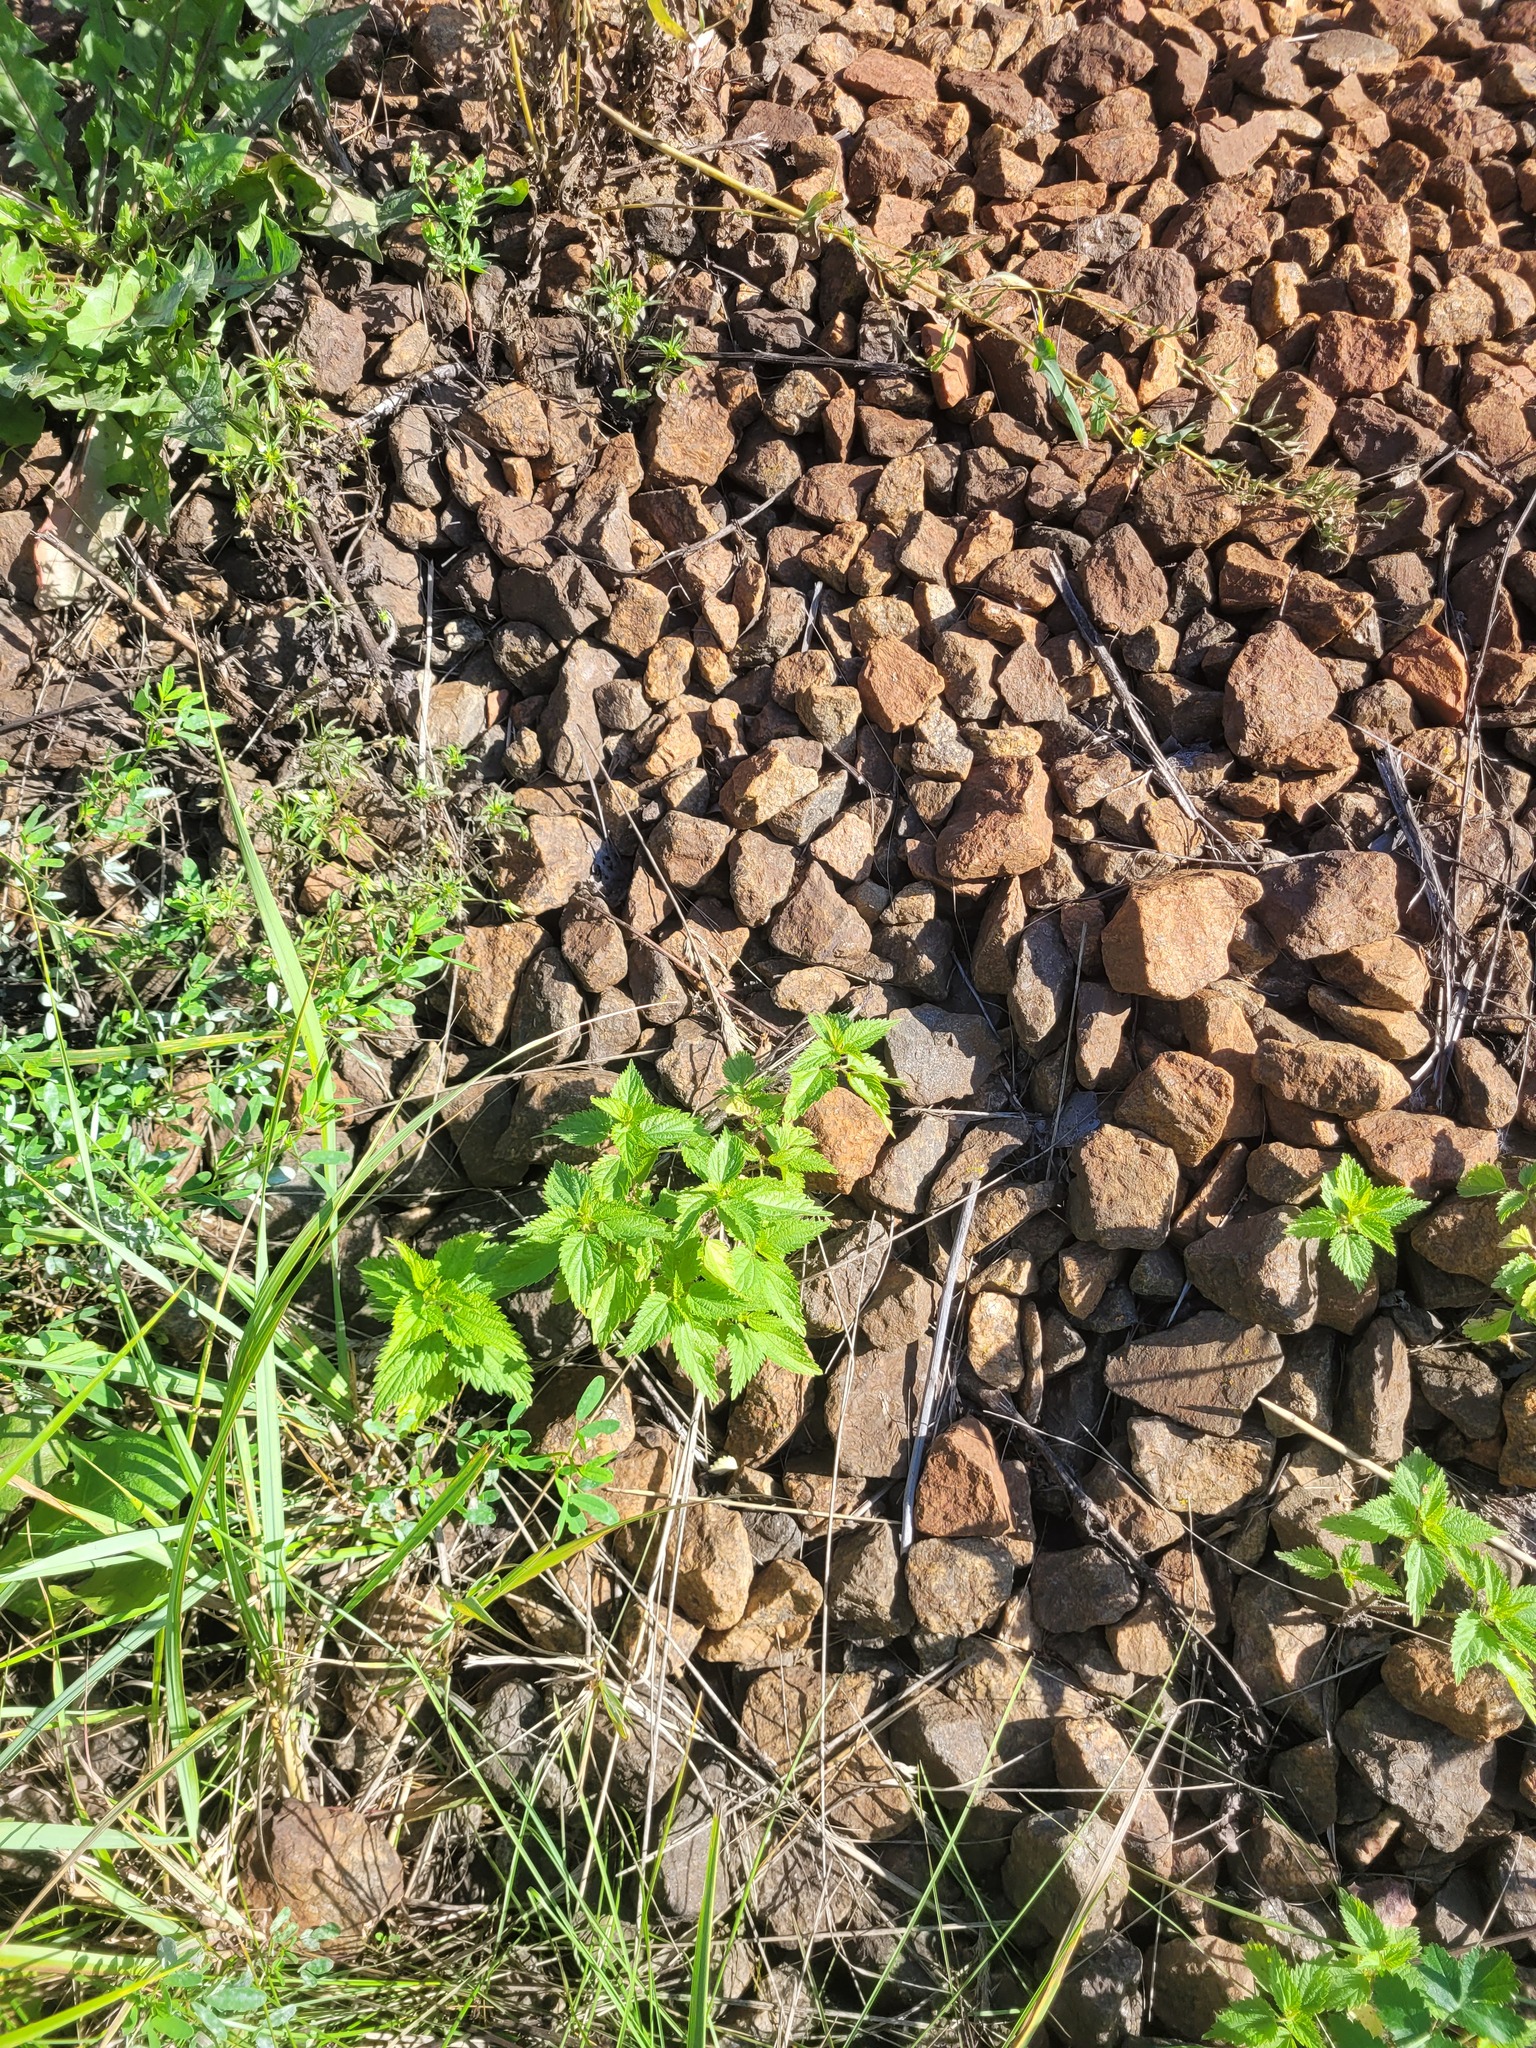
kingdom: Plantae
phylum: Tracheophyta
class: Magnoliopsida
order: Rosales
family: Urticaceae
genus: Urtica
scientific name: Urtica dioica
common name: Common nettle
